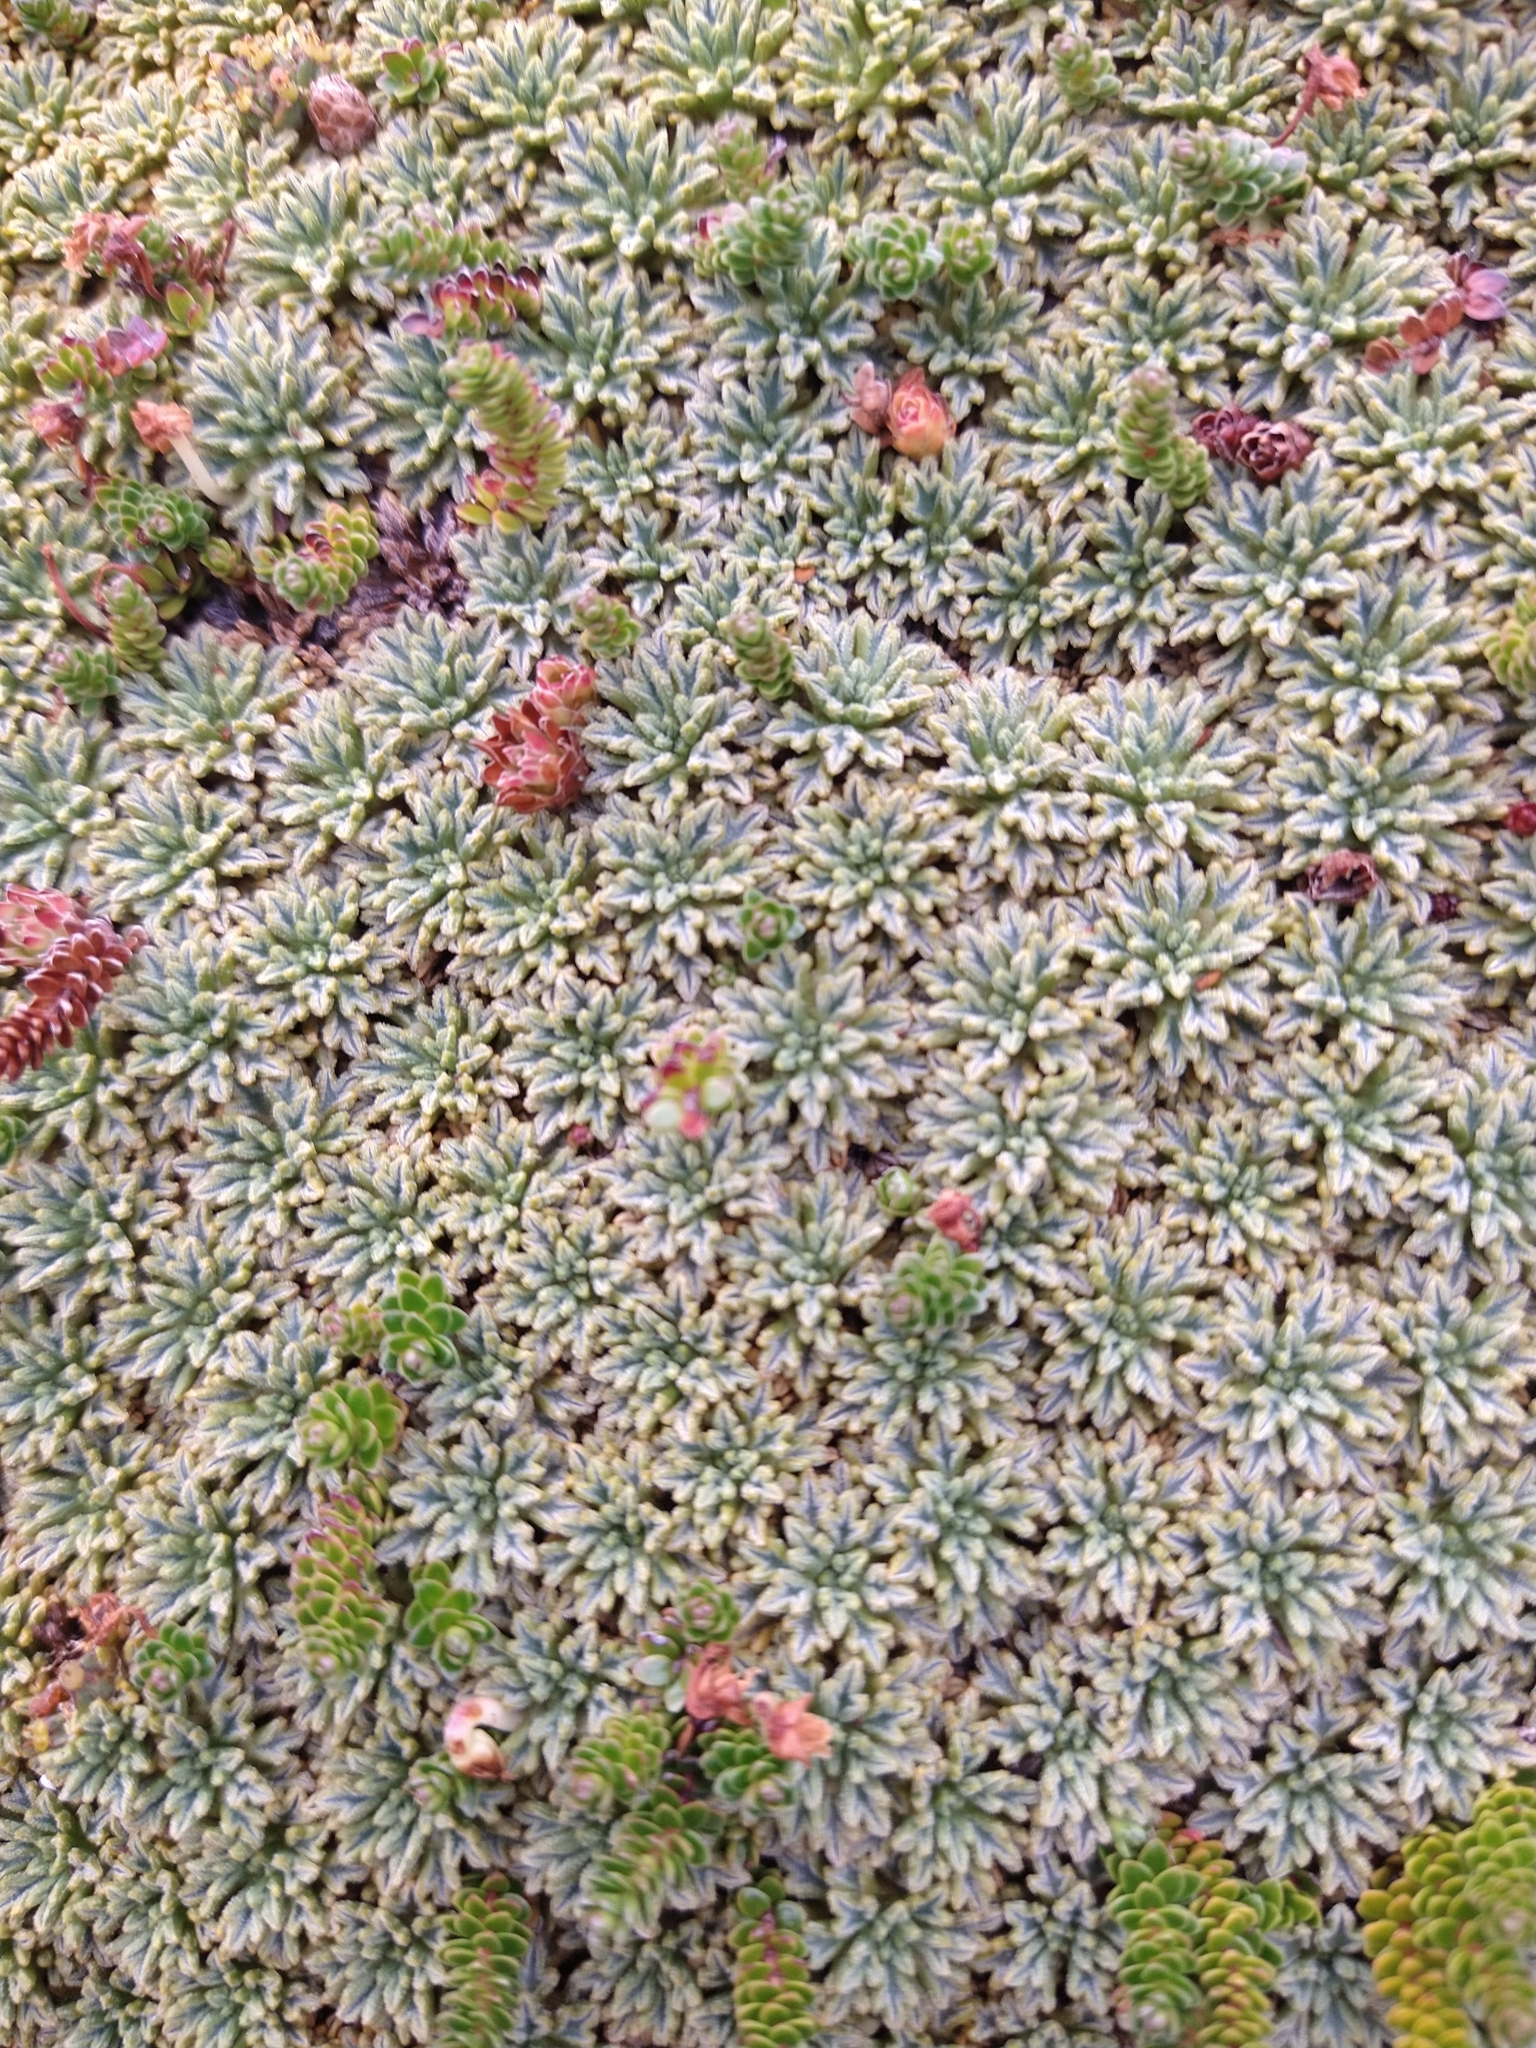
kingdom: Plantae
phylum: Tracheophyta
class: Magnoliopsida
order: Apiales
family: Apiaceae
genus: Bolax
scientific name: Bolax gummifera
